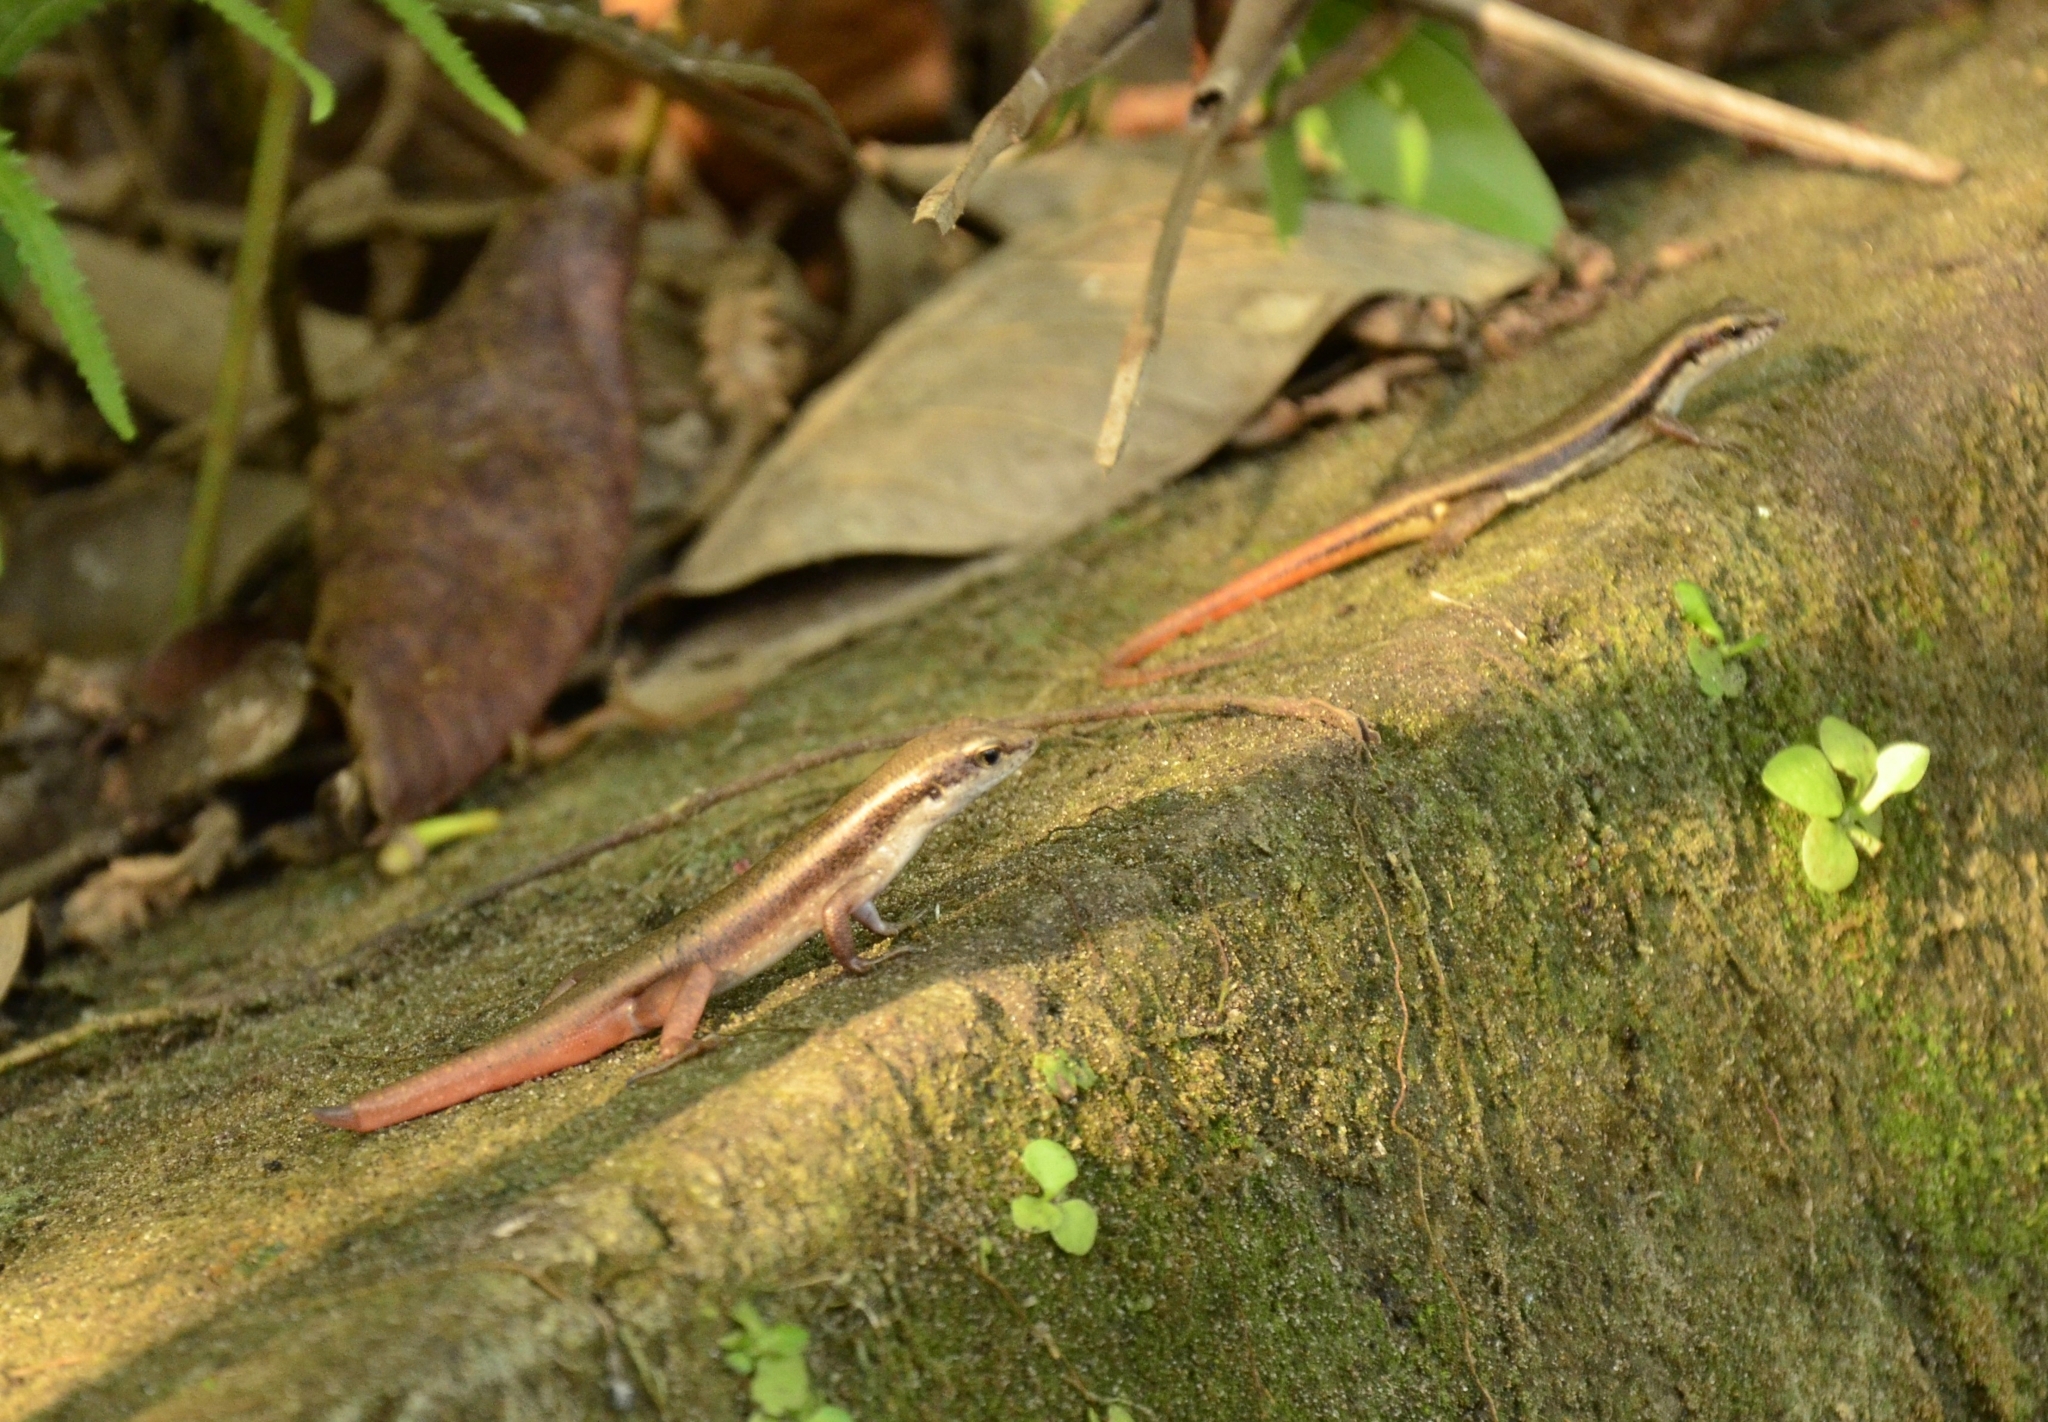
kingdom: Animalia
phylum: Chordata
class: Squamata
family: Scincidae
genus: Sphenomorphus
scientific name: Sphenomorphus dussumieri
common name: Dussumier's forest skink
